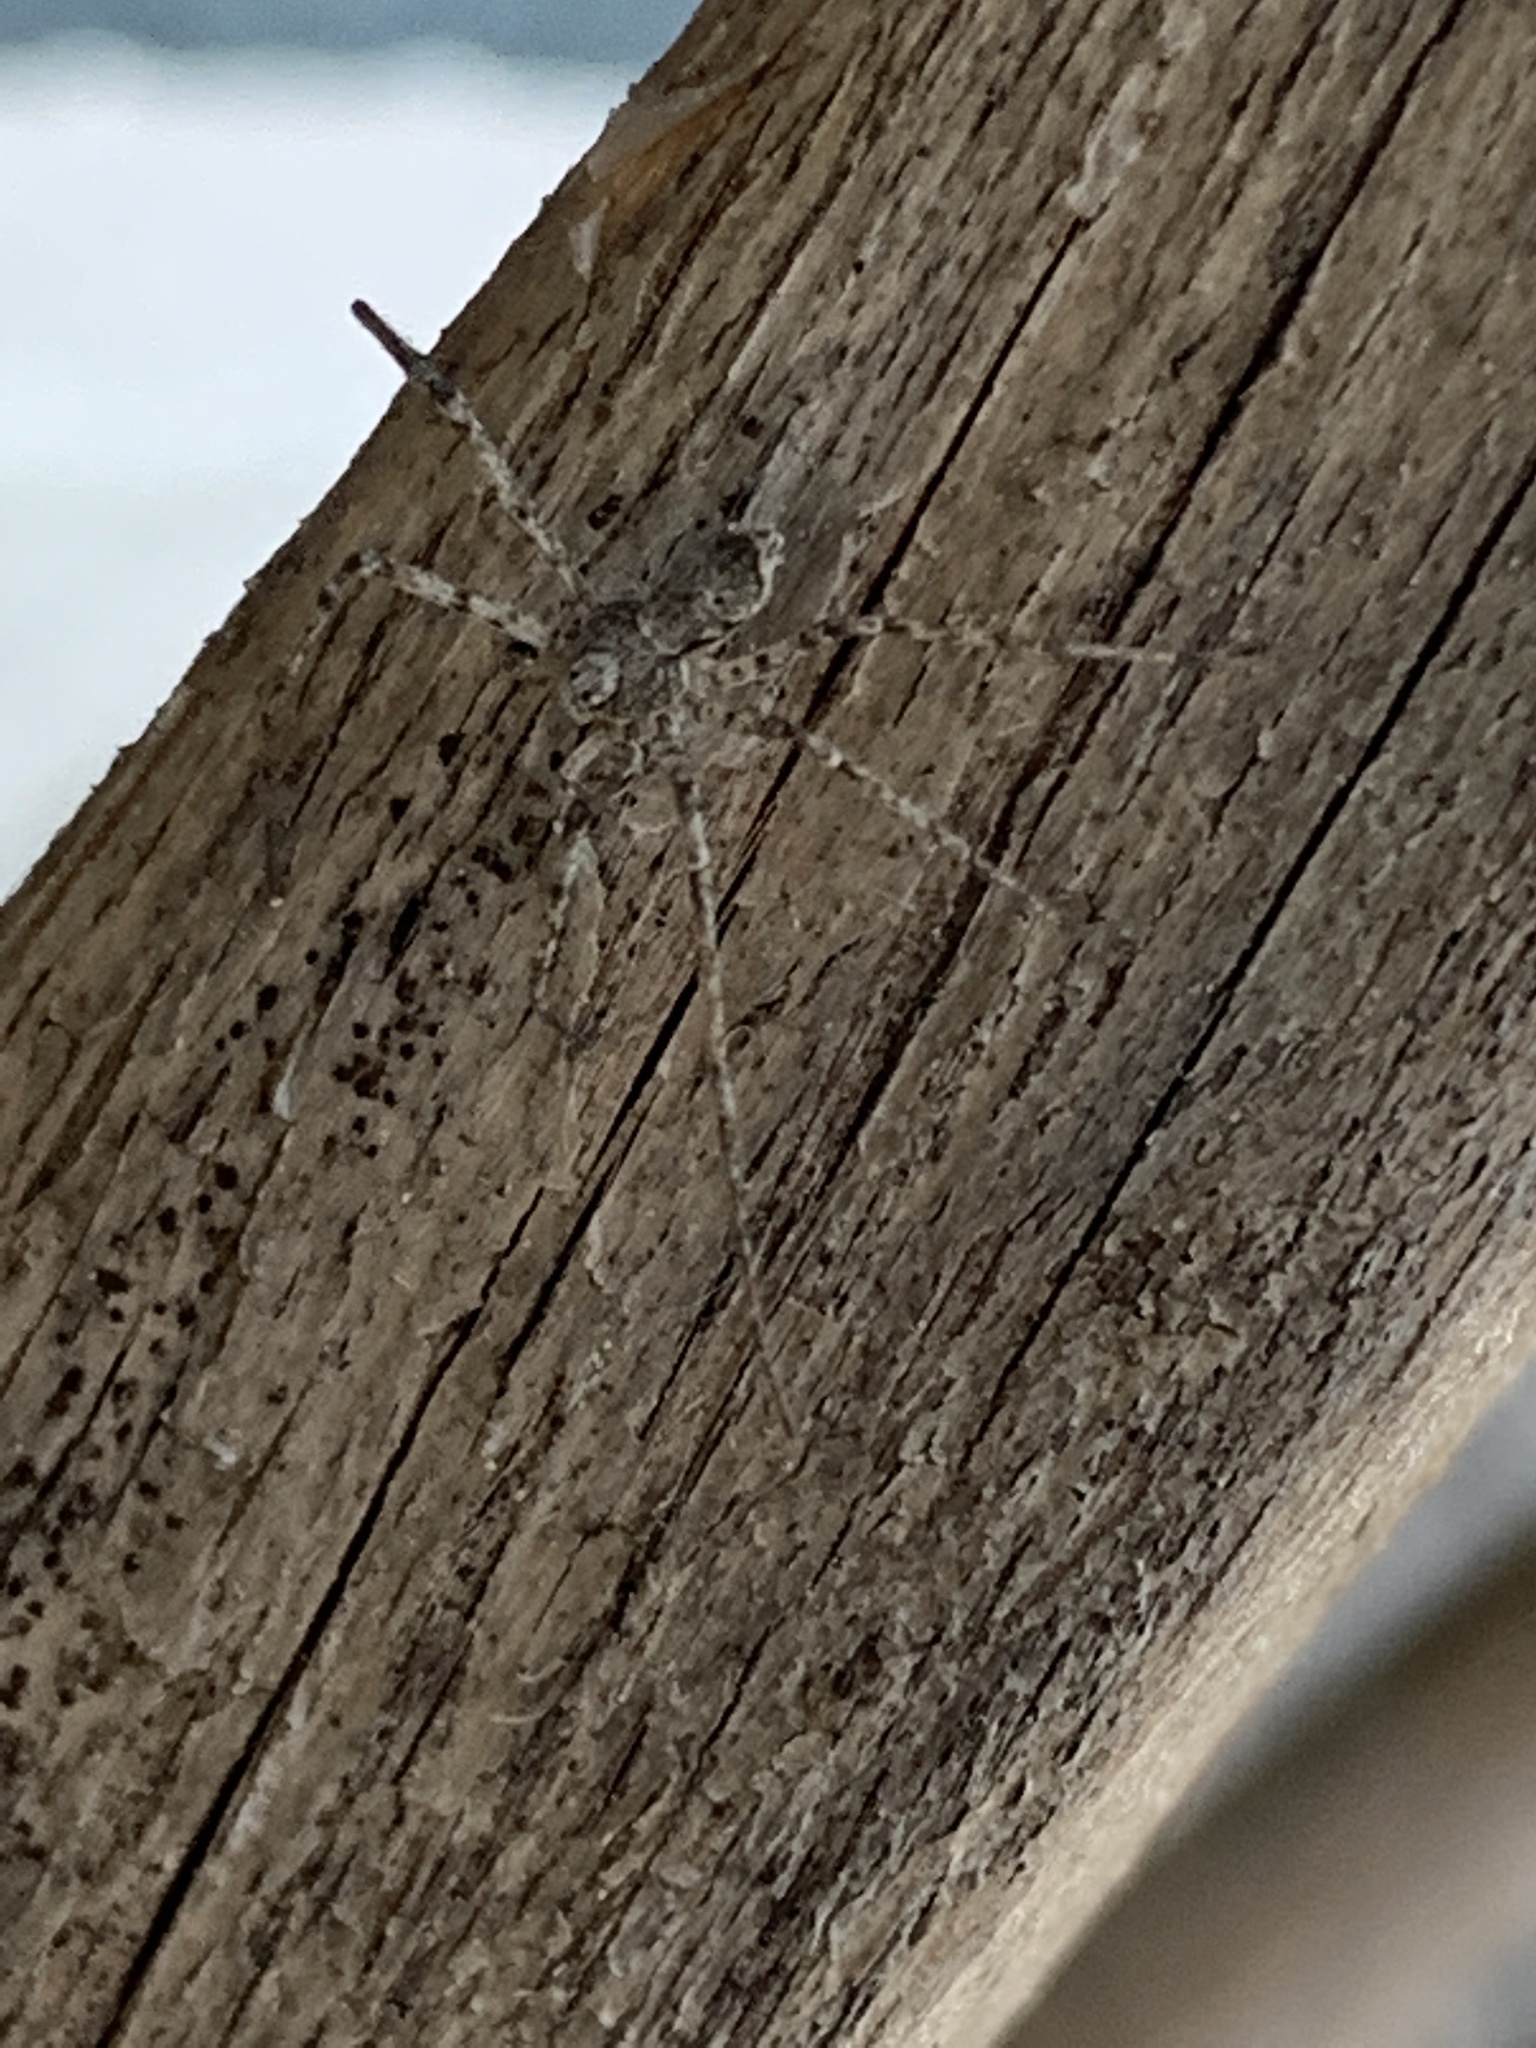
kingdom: Animalia
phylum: Arthropoda
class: Arachnida
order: Araneae
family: Philodromidae
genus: Philodromus
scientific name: Philodromus cespitum
